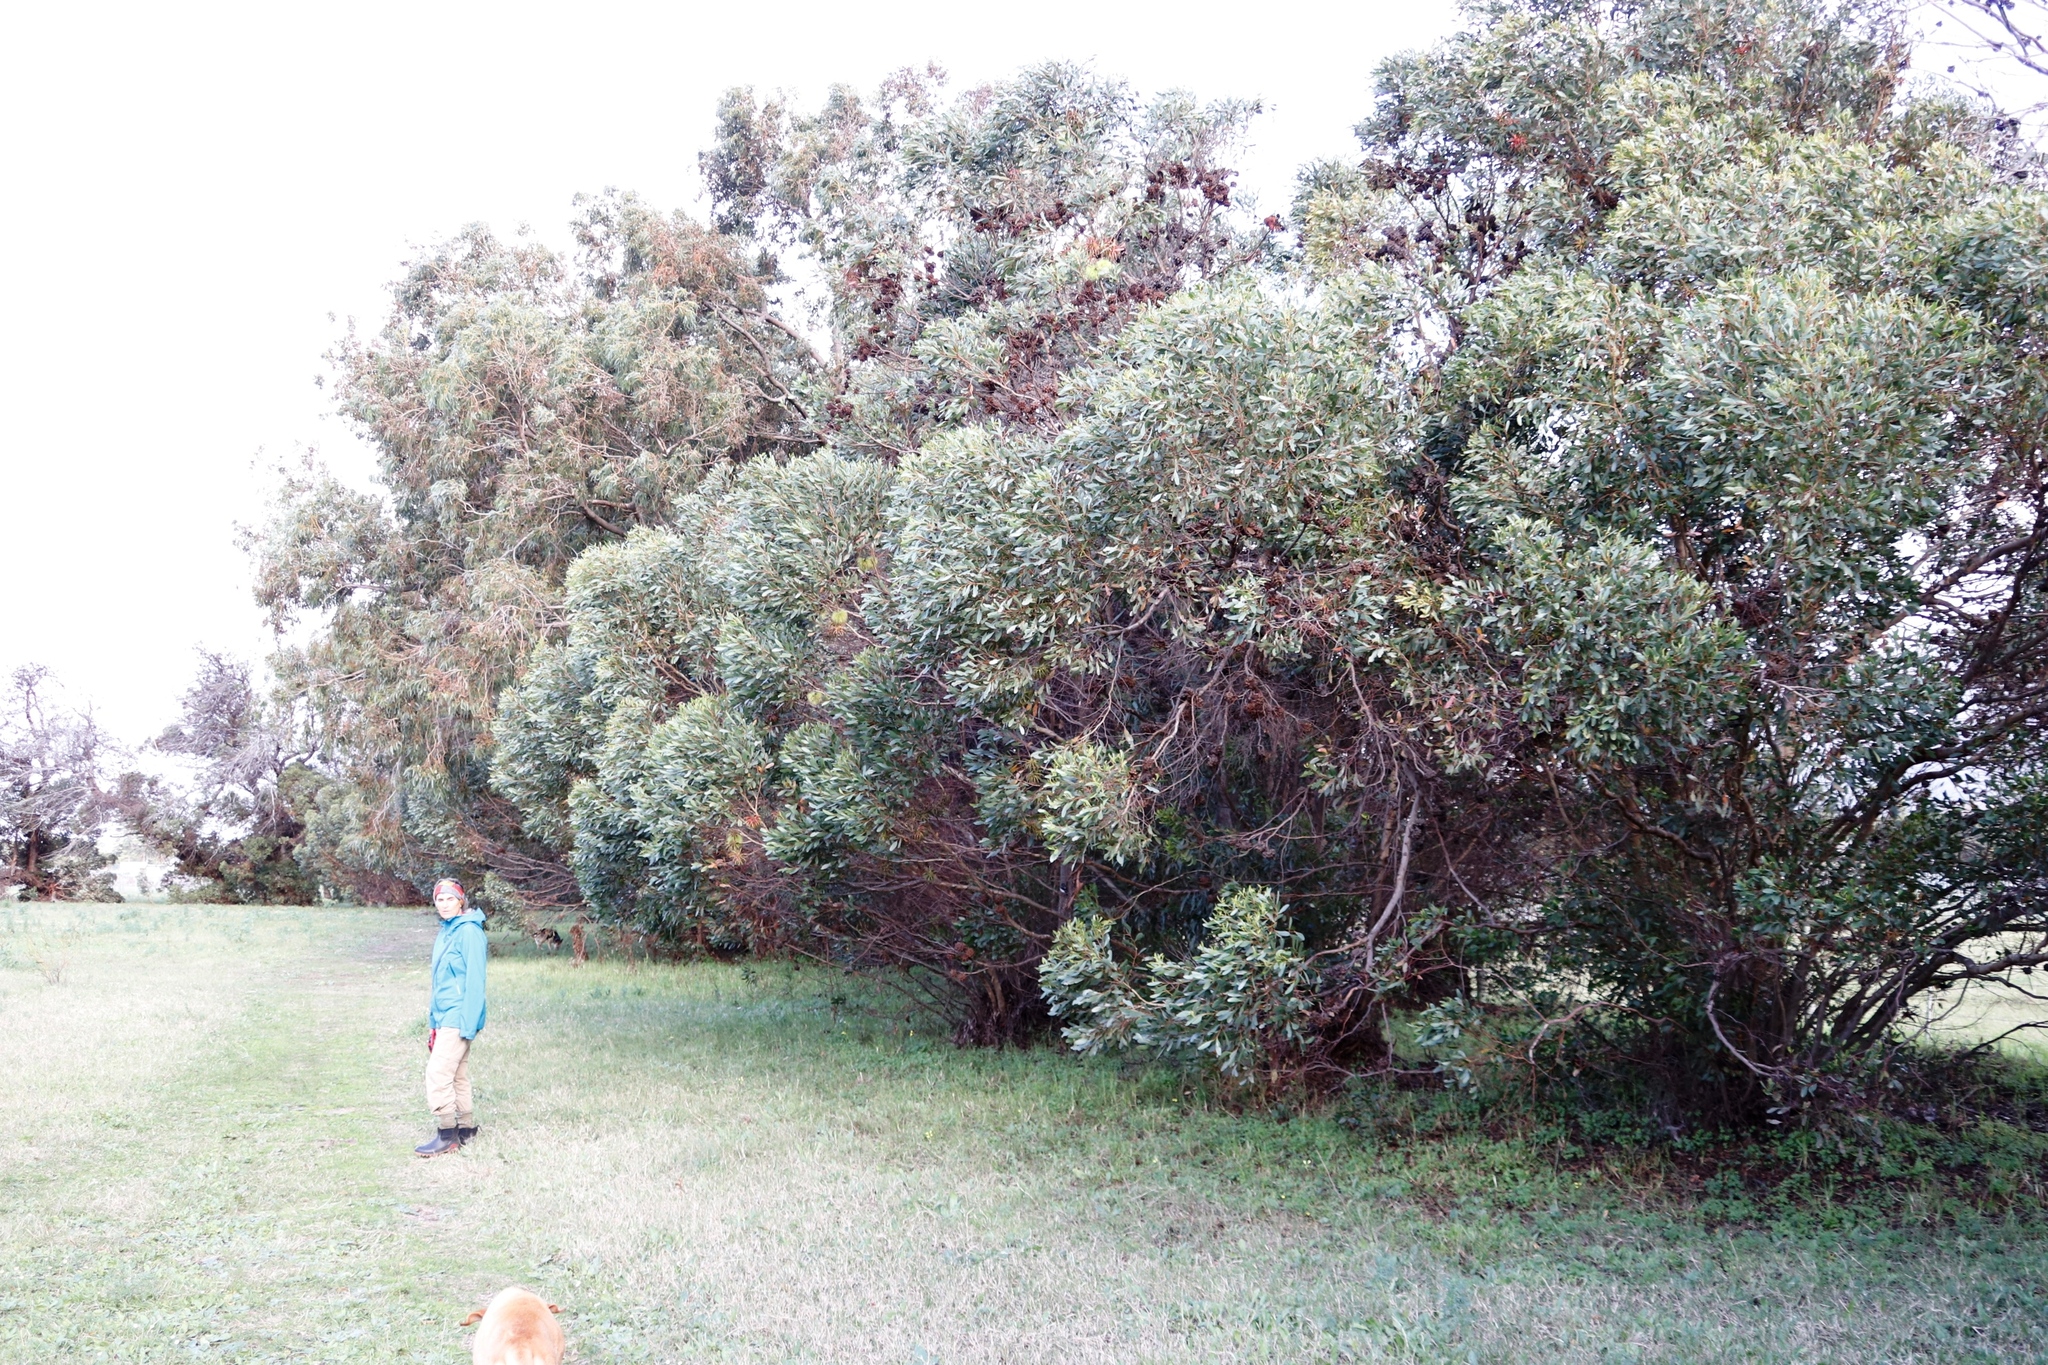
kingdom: Plantae
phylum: Tracheophyta
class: Magnoliopsida
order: Myrtales
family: Myrtaceae
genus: Eucalyptus
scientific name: Eucalyptus conferruminata
